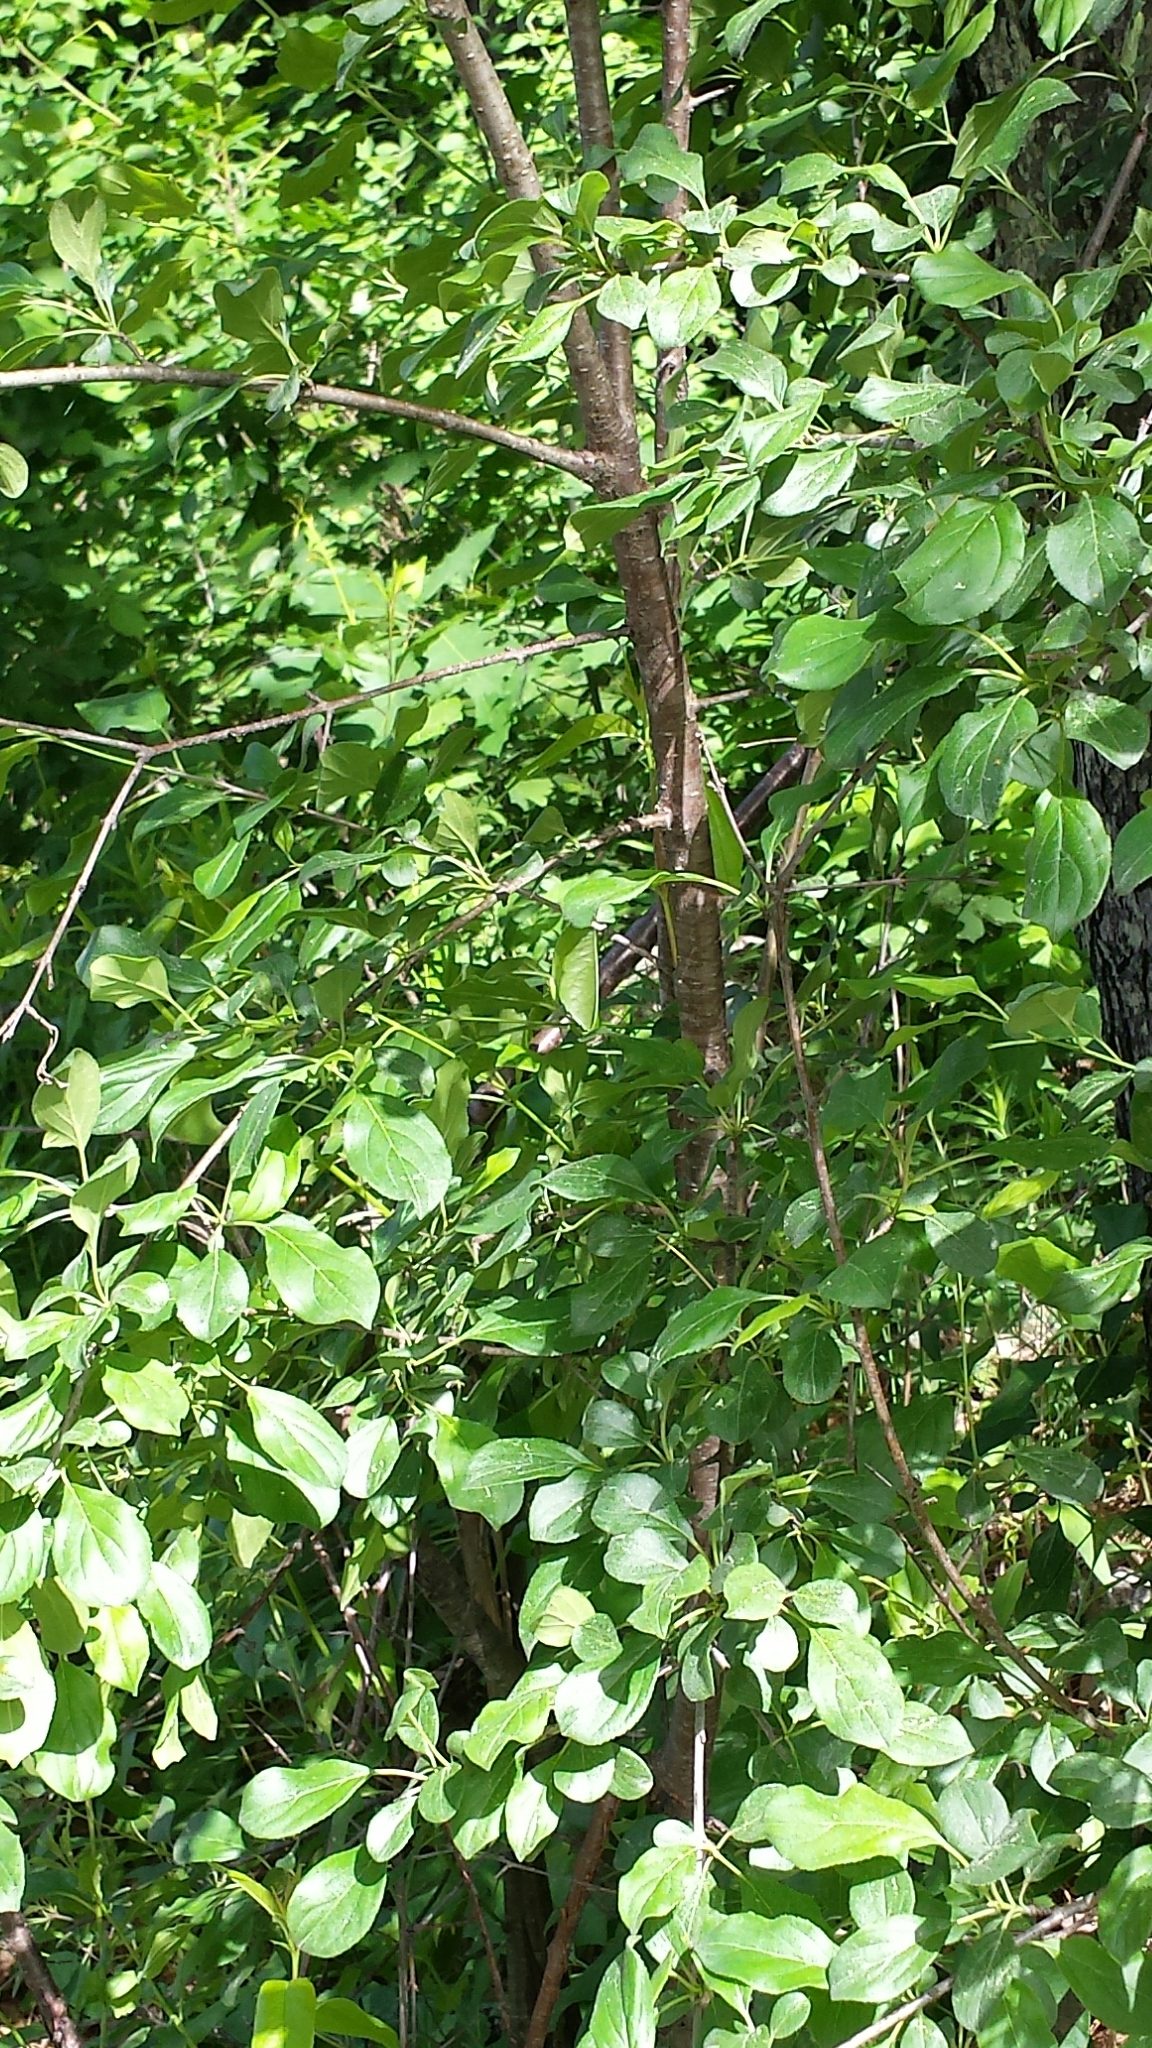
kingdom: Plantae
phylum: Tracheophyta
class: Magnoliopsida
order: Rosales
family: Rhamnaceae
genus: Rhamnus
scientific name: Rhamnus cathartica
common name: Common buckthorn
